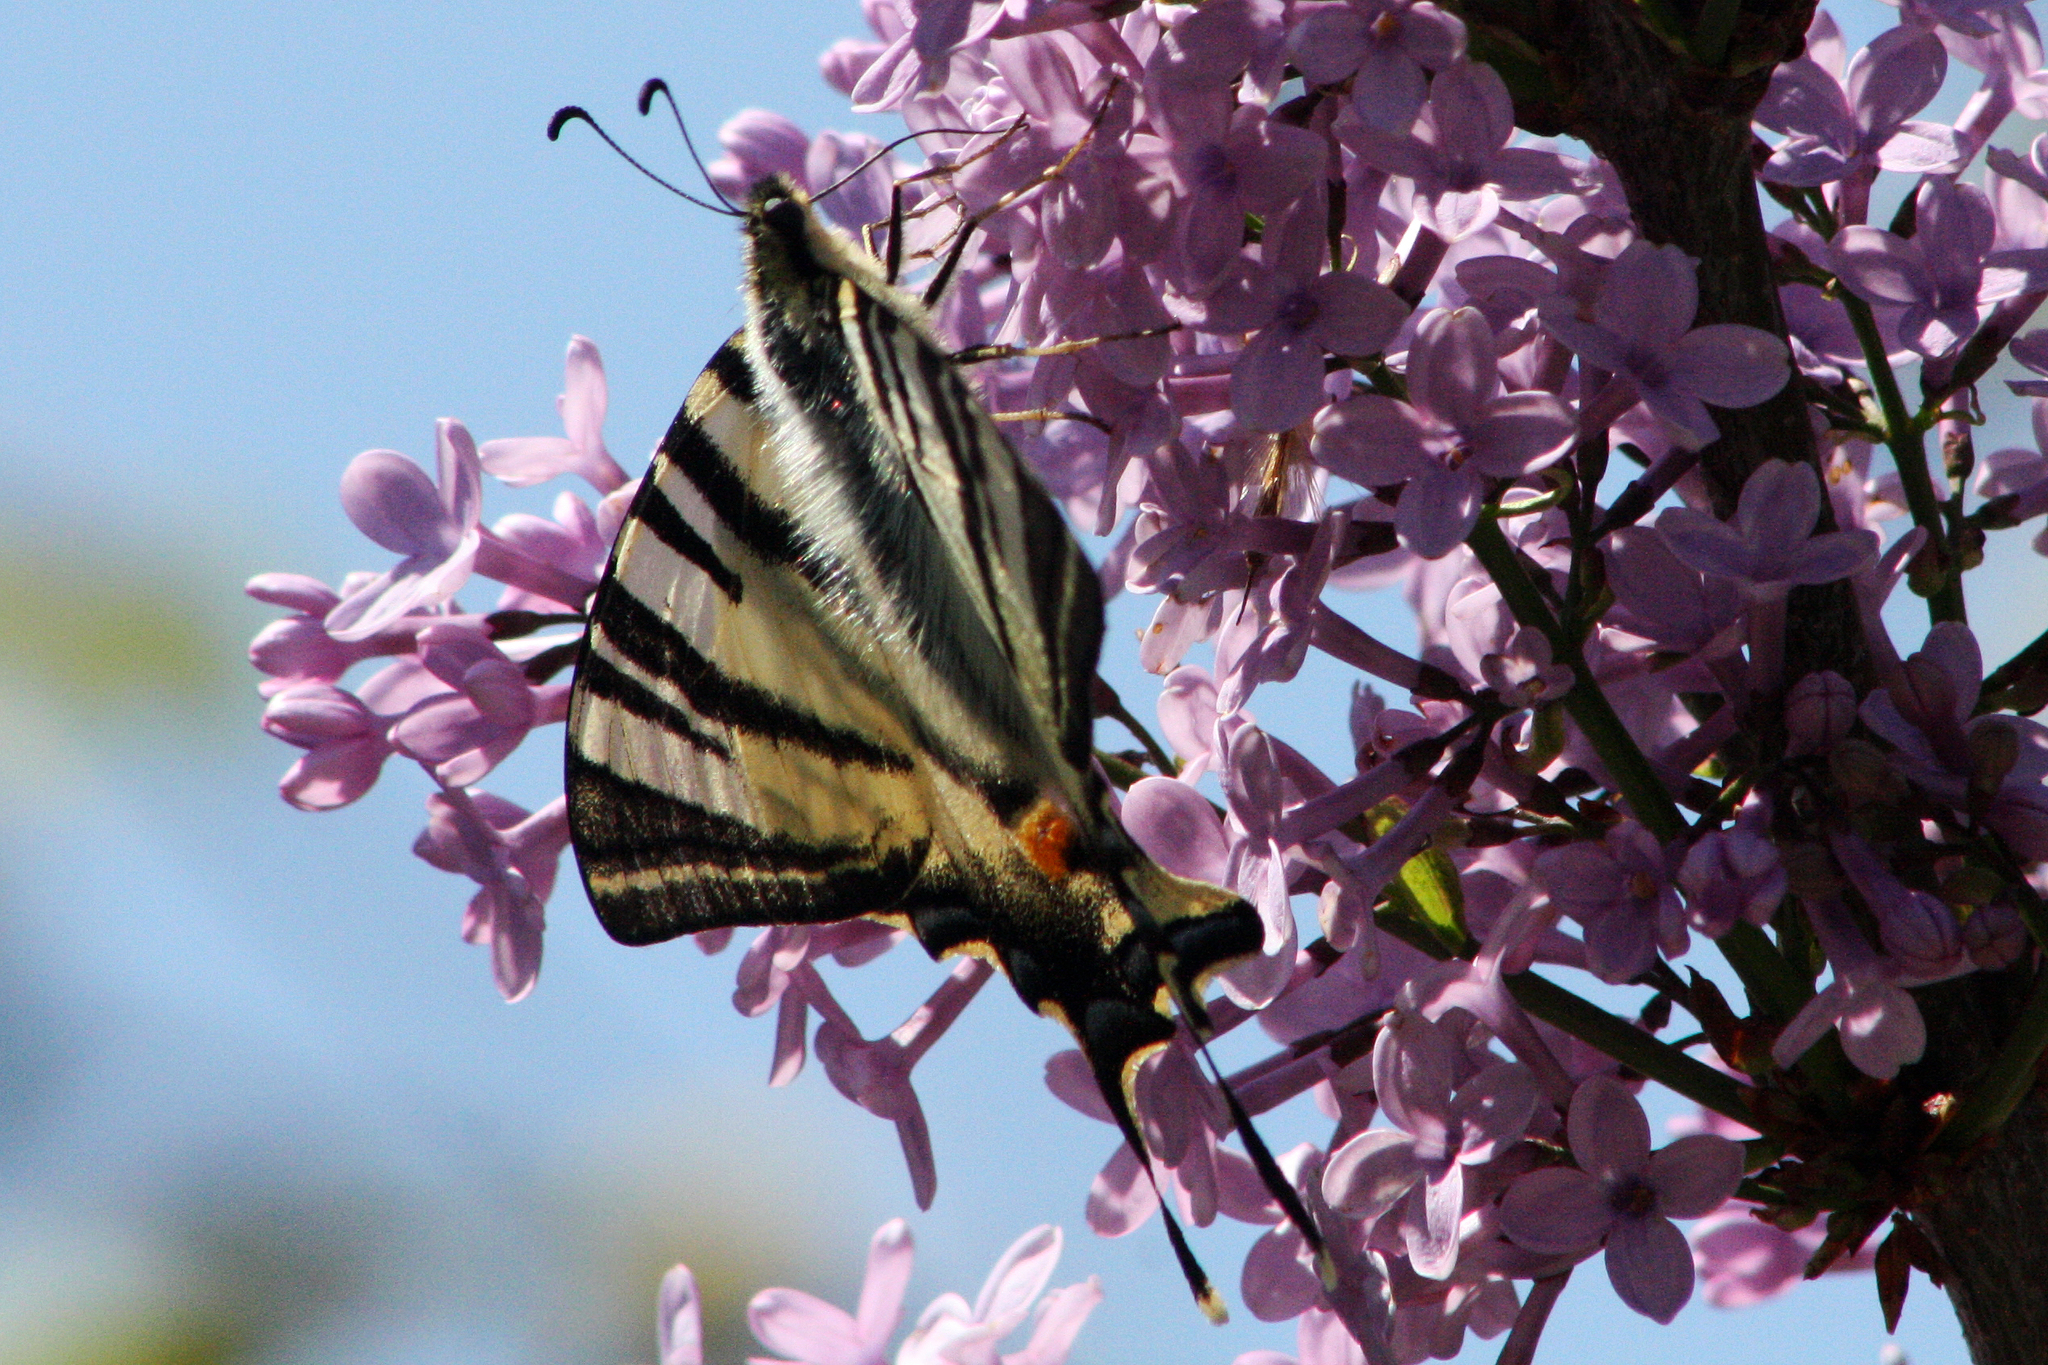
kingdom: Animalia
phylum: Arthropoda
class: Insecta
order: Lepidoptera
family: Papilionidae
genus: Iphiclides
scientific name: Iphiclides podalirius
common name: Scarce swallowtail
